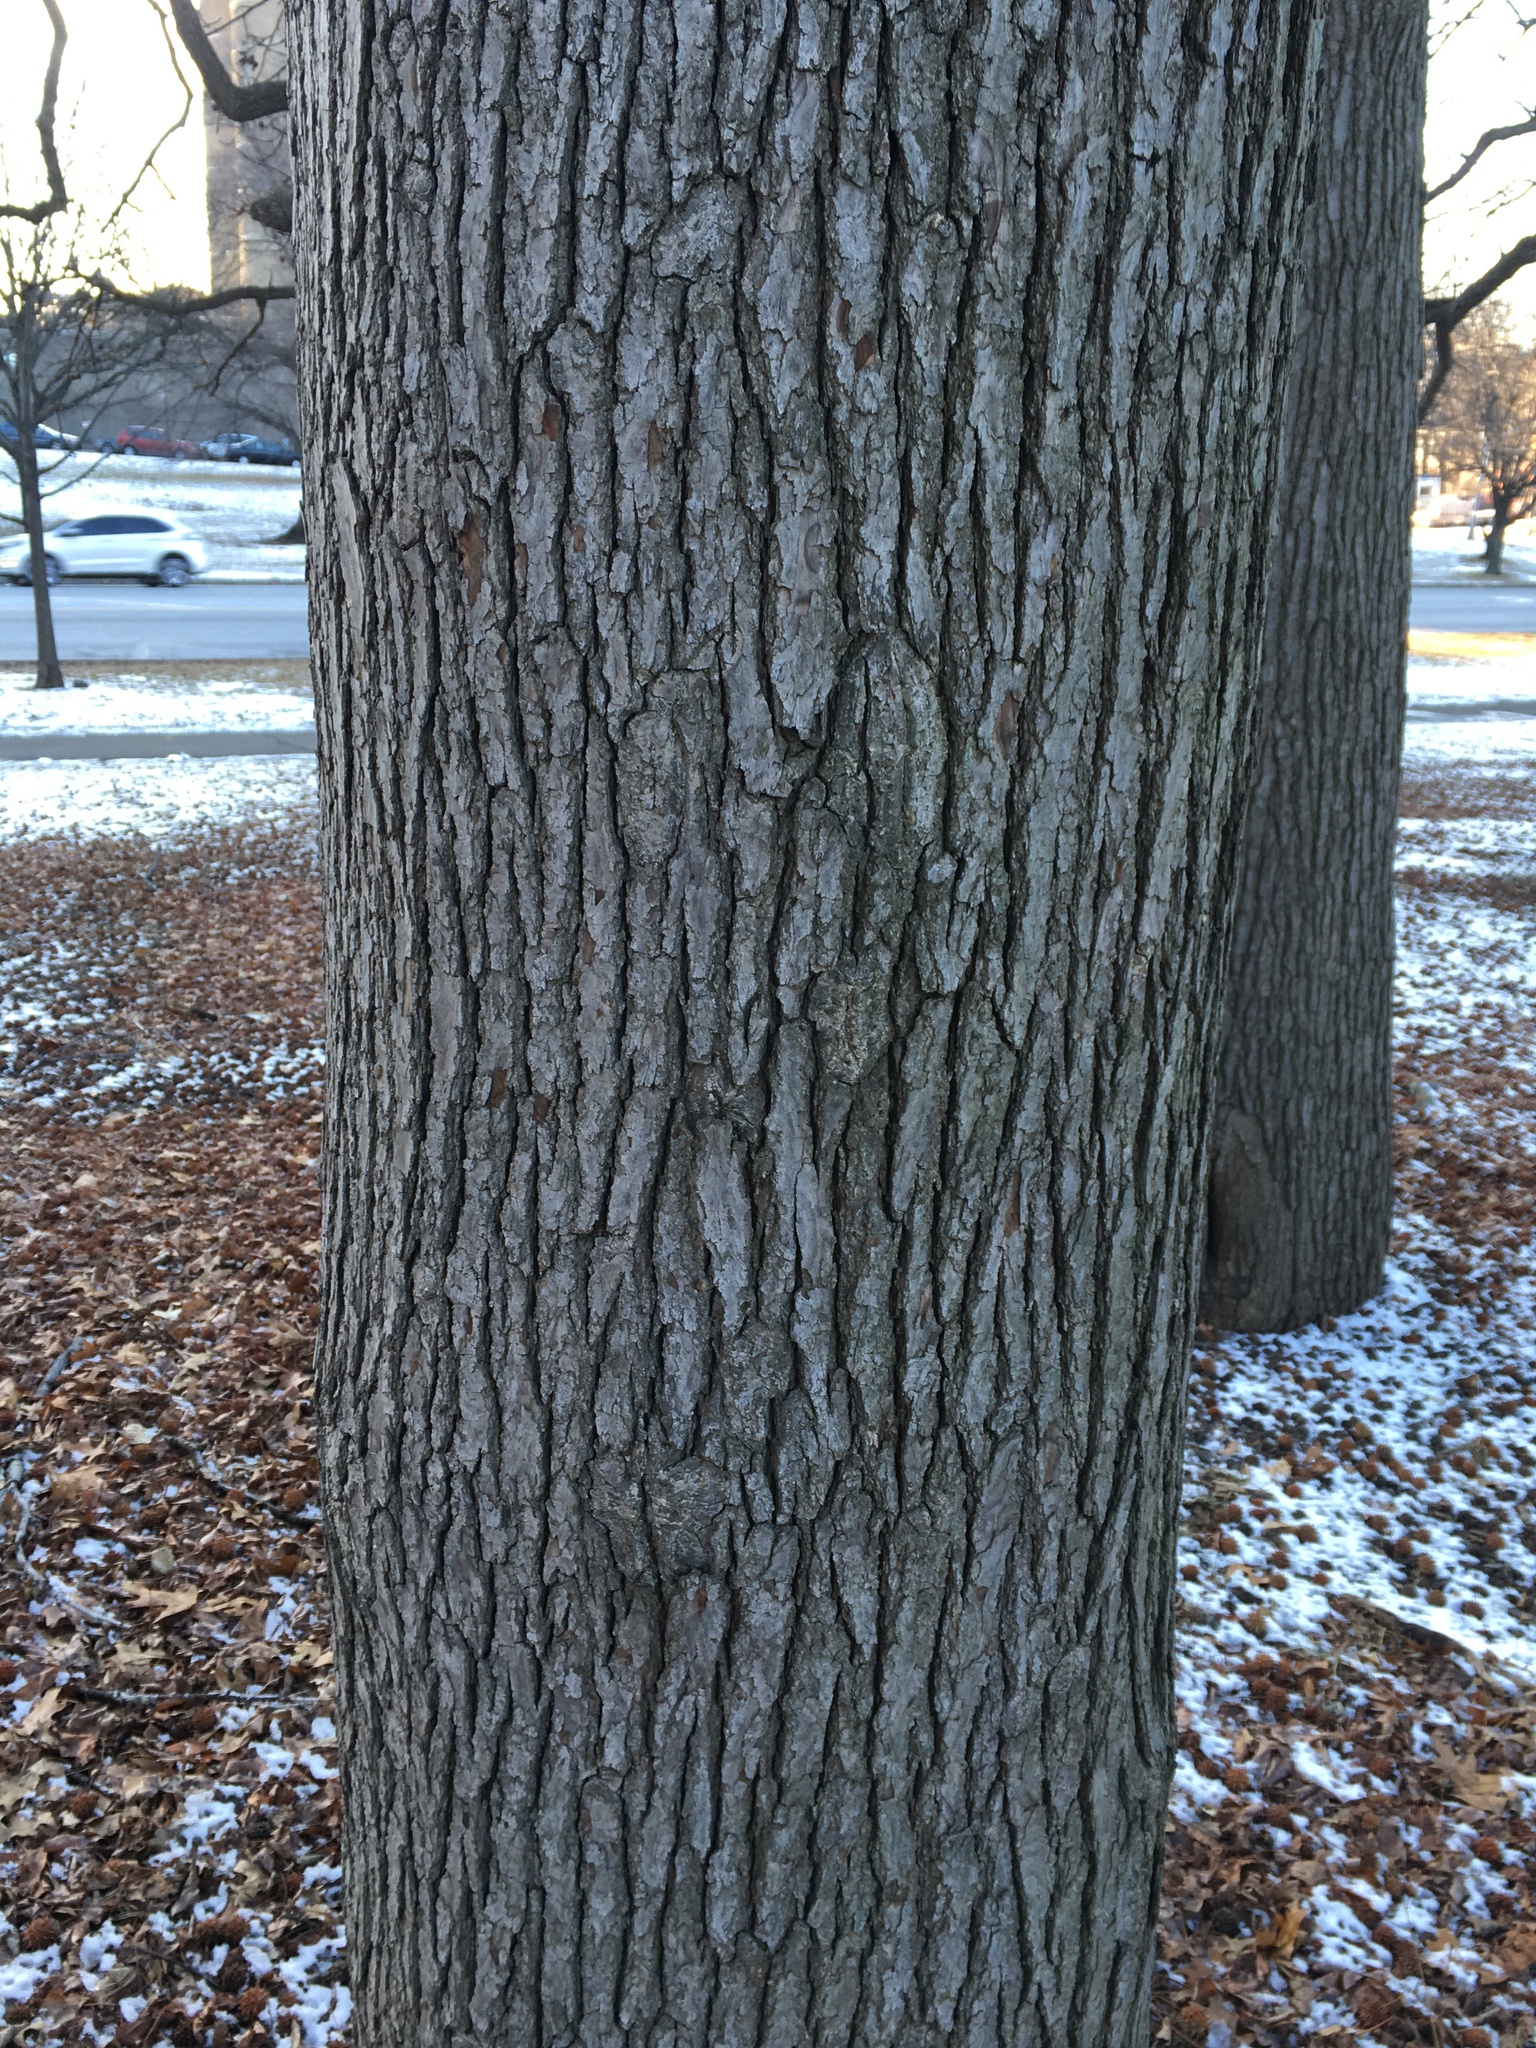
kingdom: Plantae
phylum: Tracheophyta
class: Magnoliopsida
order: Saxifragales
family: Altingiaceae
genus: Liquidambar
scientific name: Liquidambar styraciflua
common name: Sweet gum
